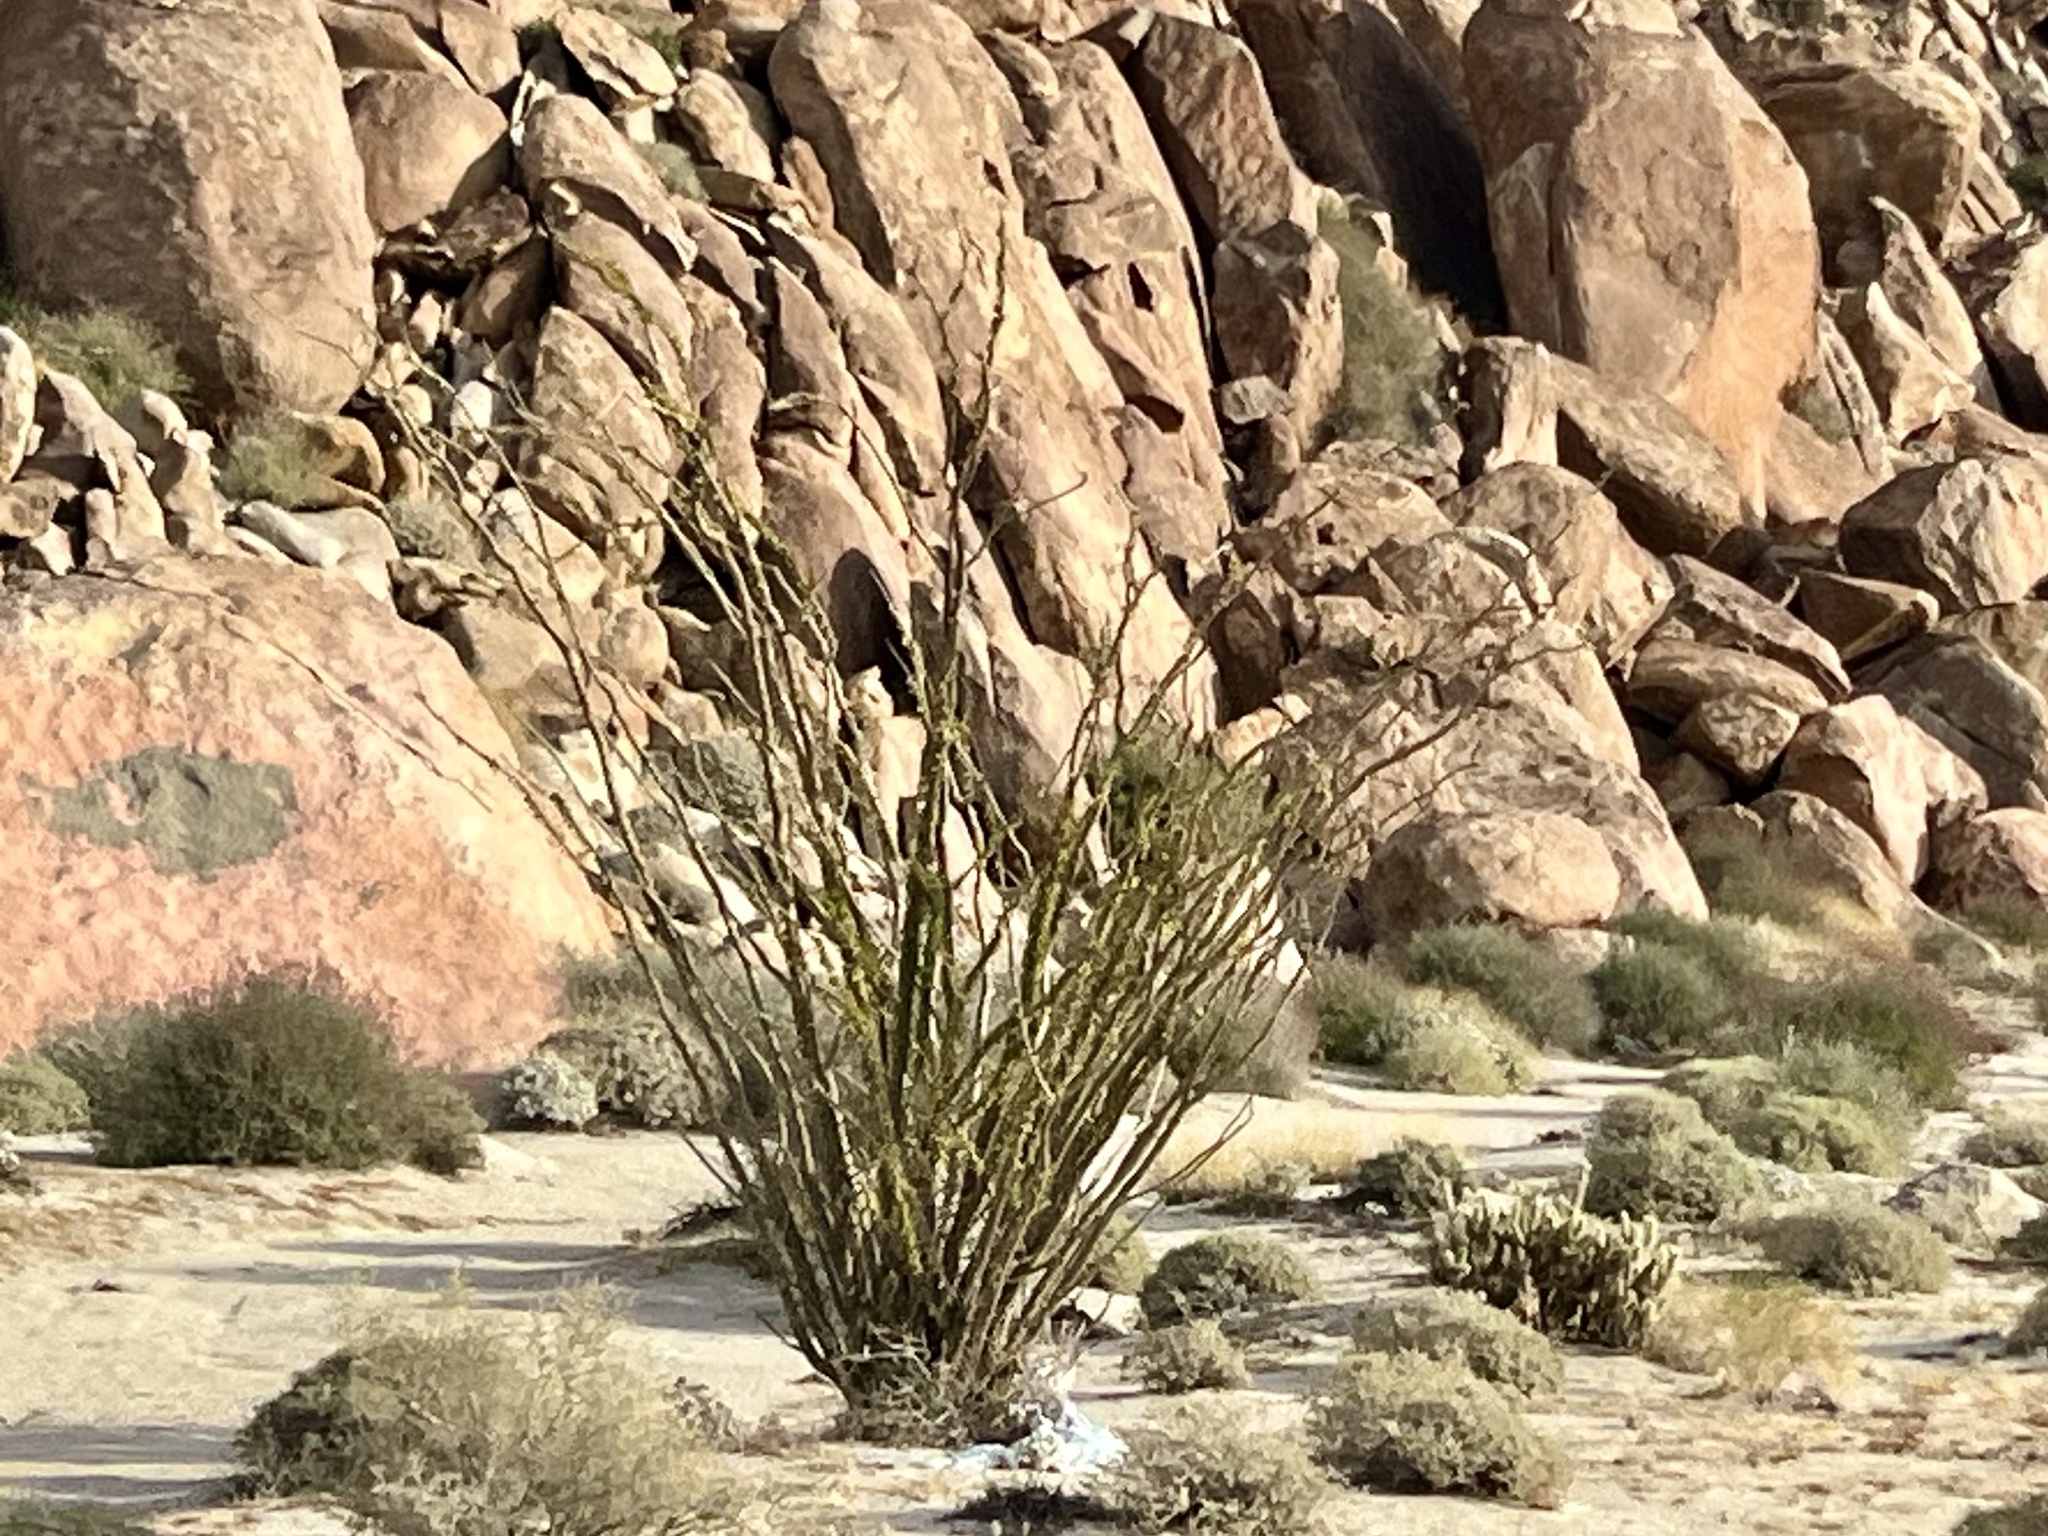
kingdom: Plantae
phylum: Tracheophyta
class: Magnoliopsida
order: Ericales
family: Fouquieriaceae
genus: Fouquieria
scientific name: Fouquieria splendens
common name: Vine-cactus
